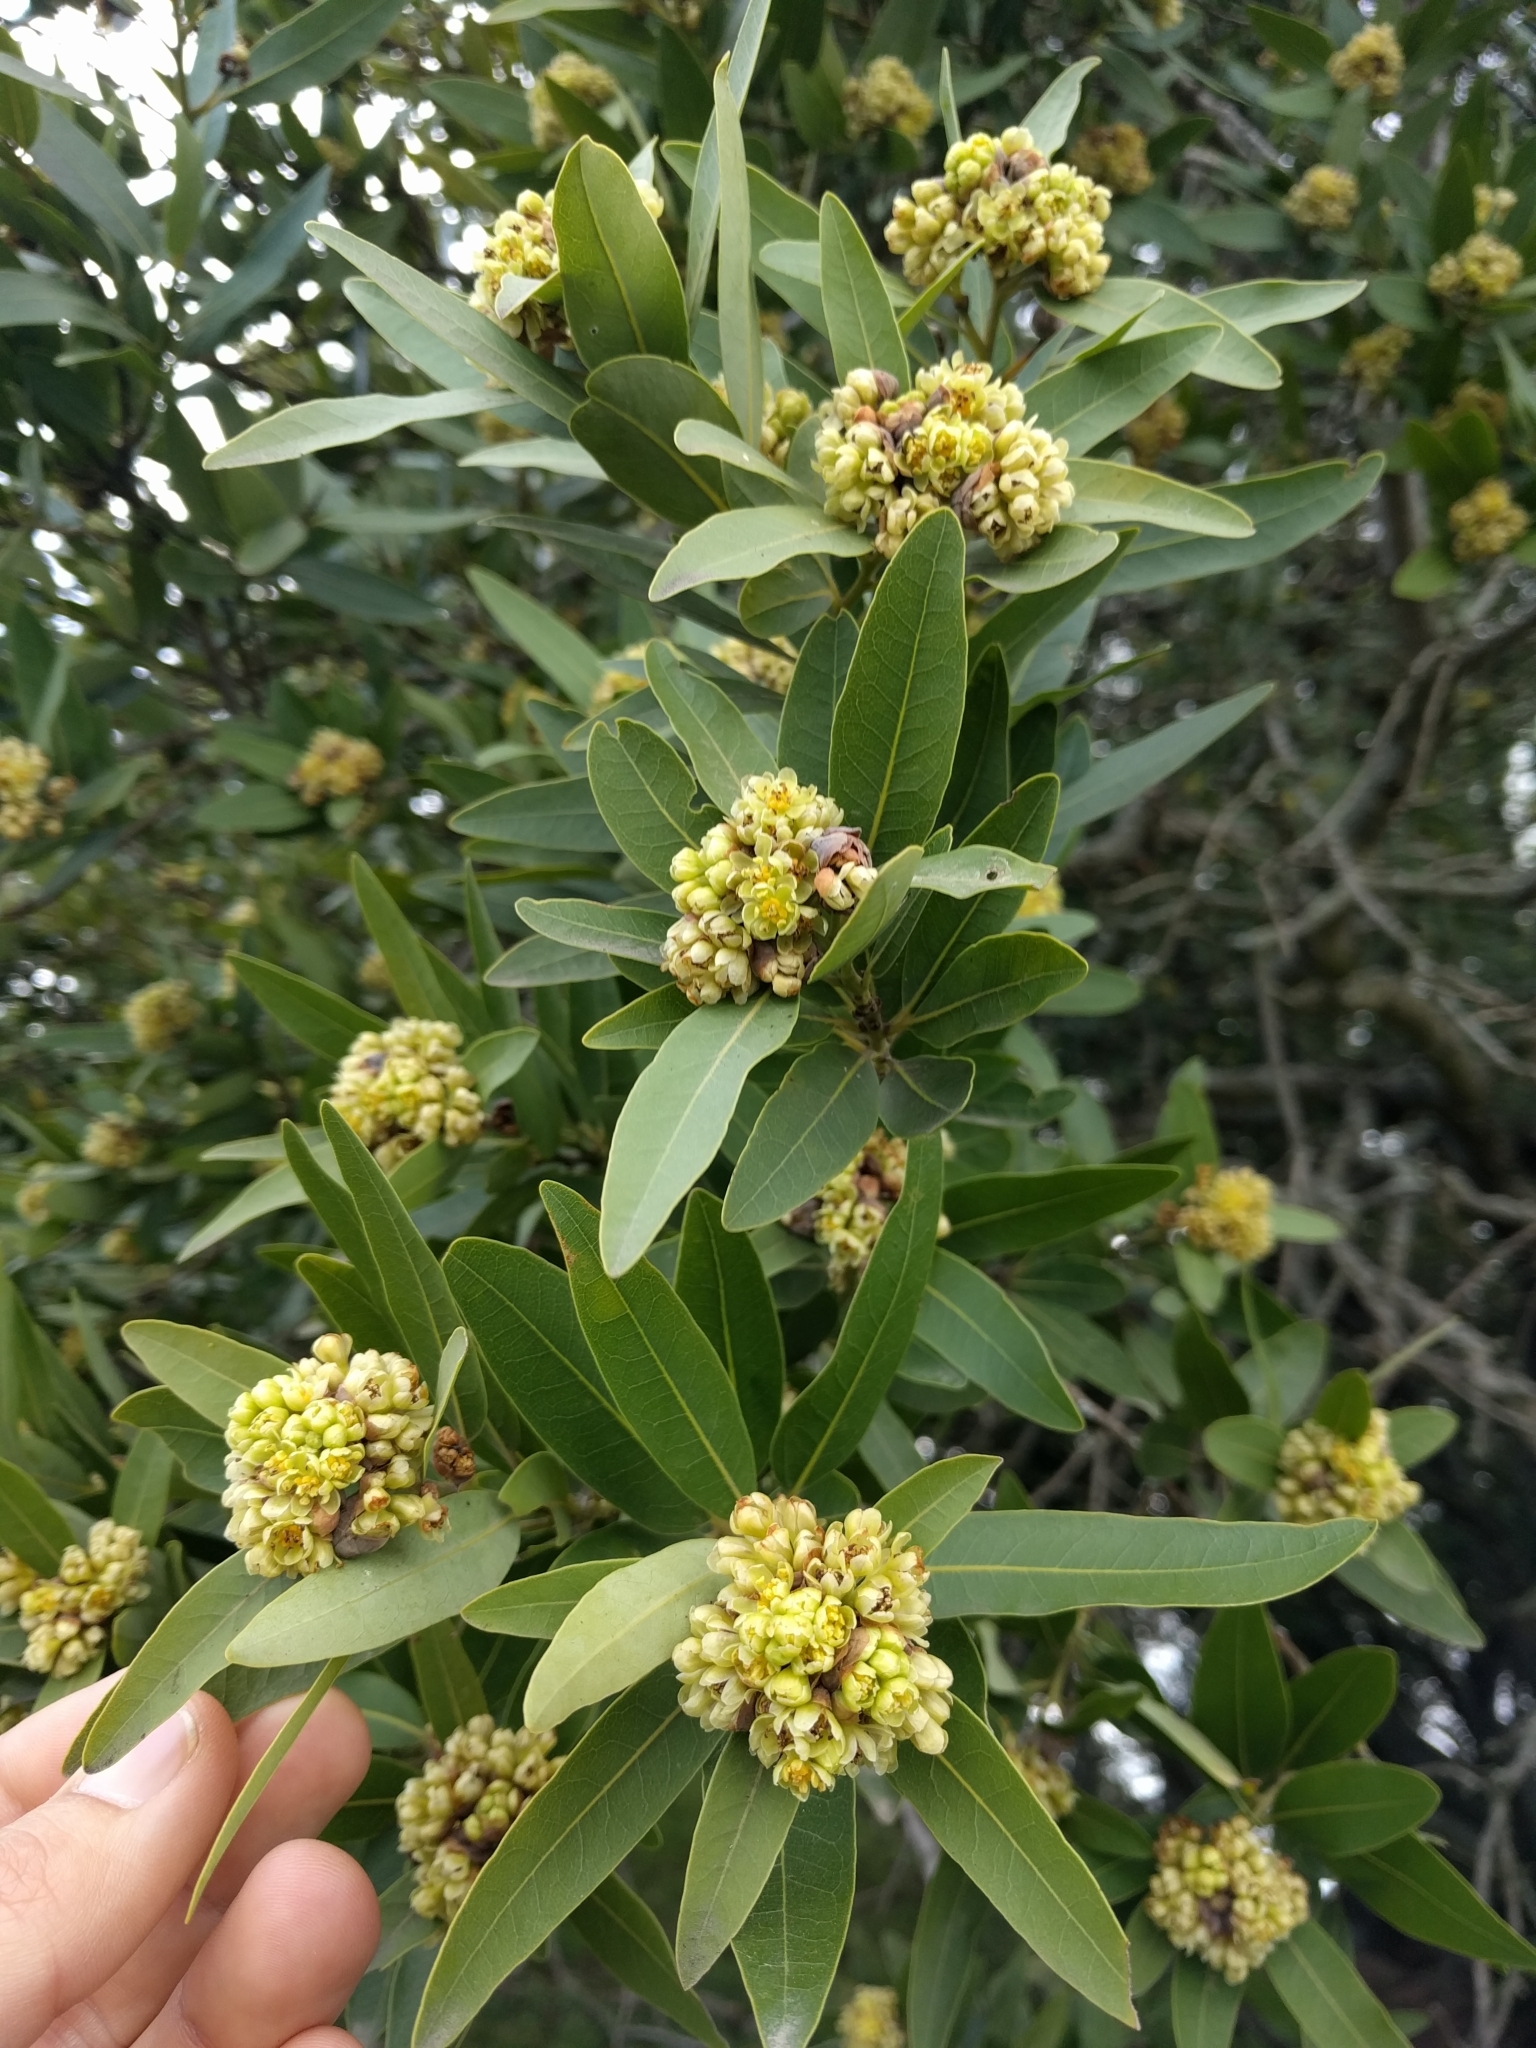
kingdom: Plantae
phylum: Tracheophyta
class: Magnoliopsida
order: Laurales
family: Lauraceae
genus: Umbellularia
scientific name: Umbellularia californica
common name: California bay
